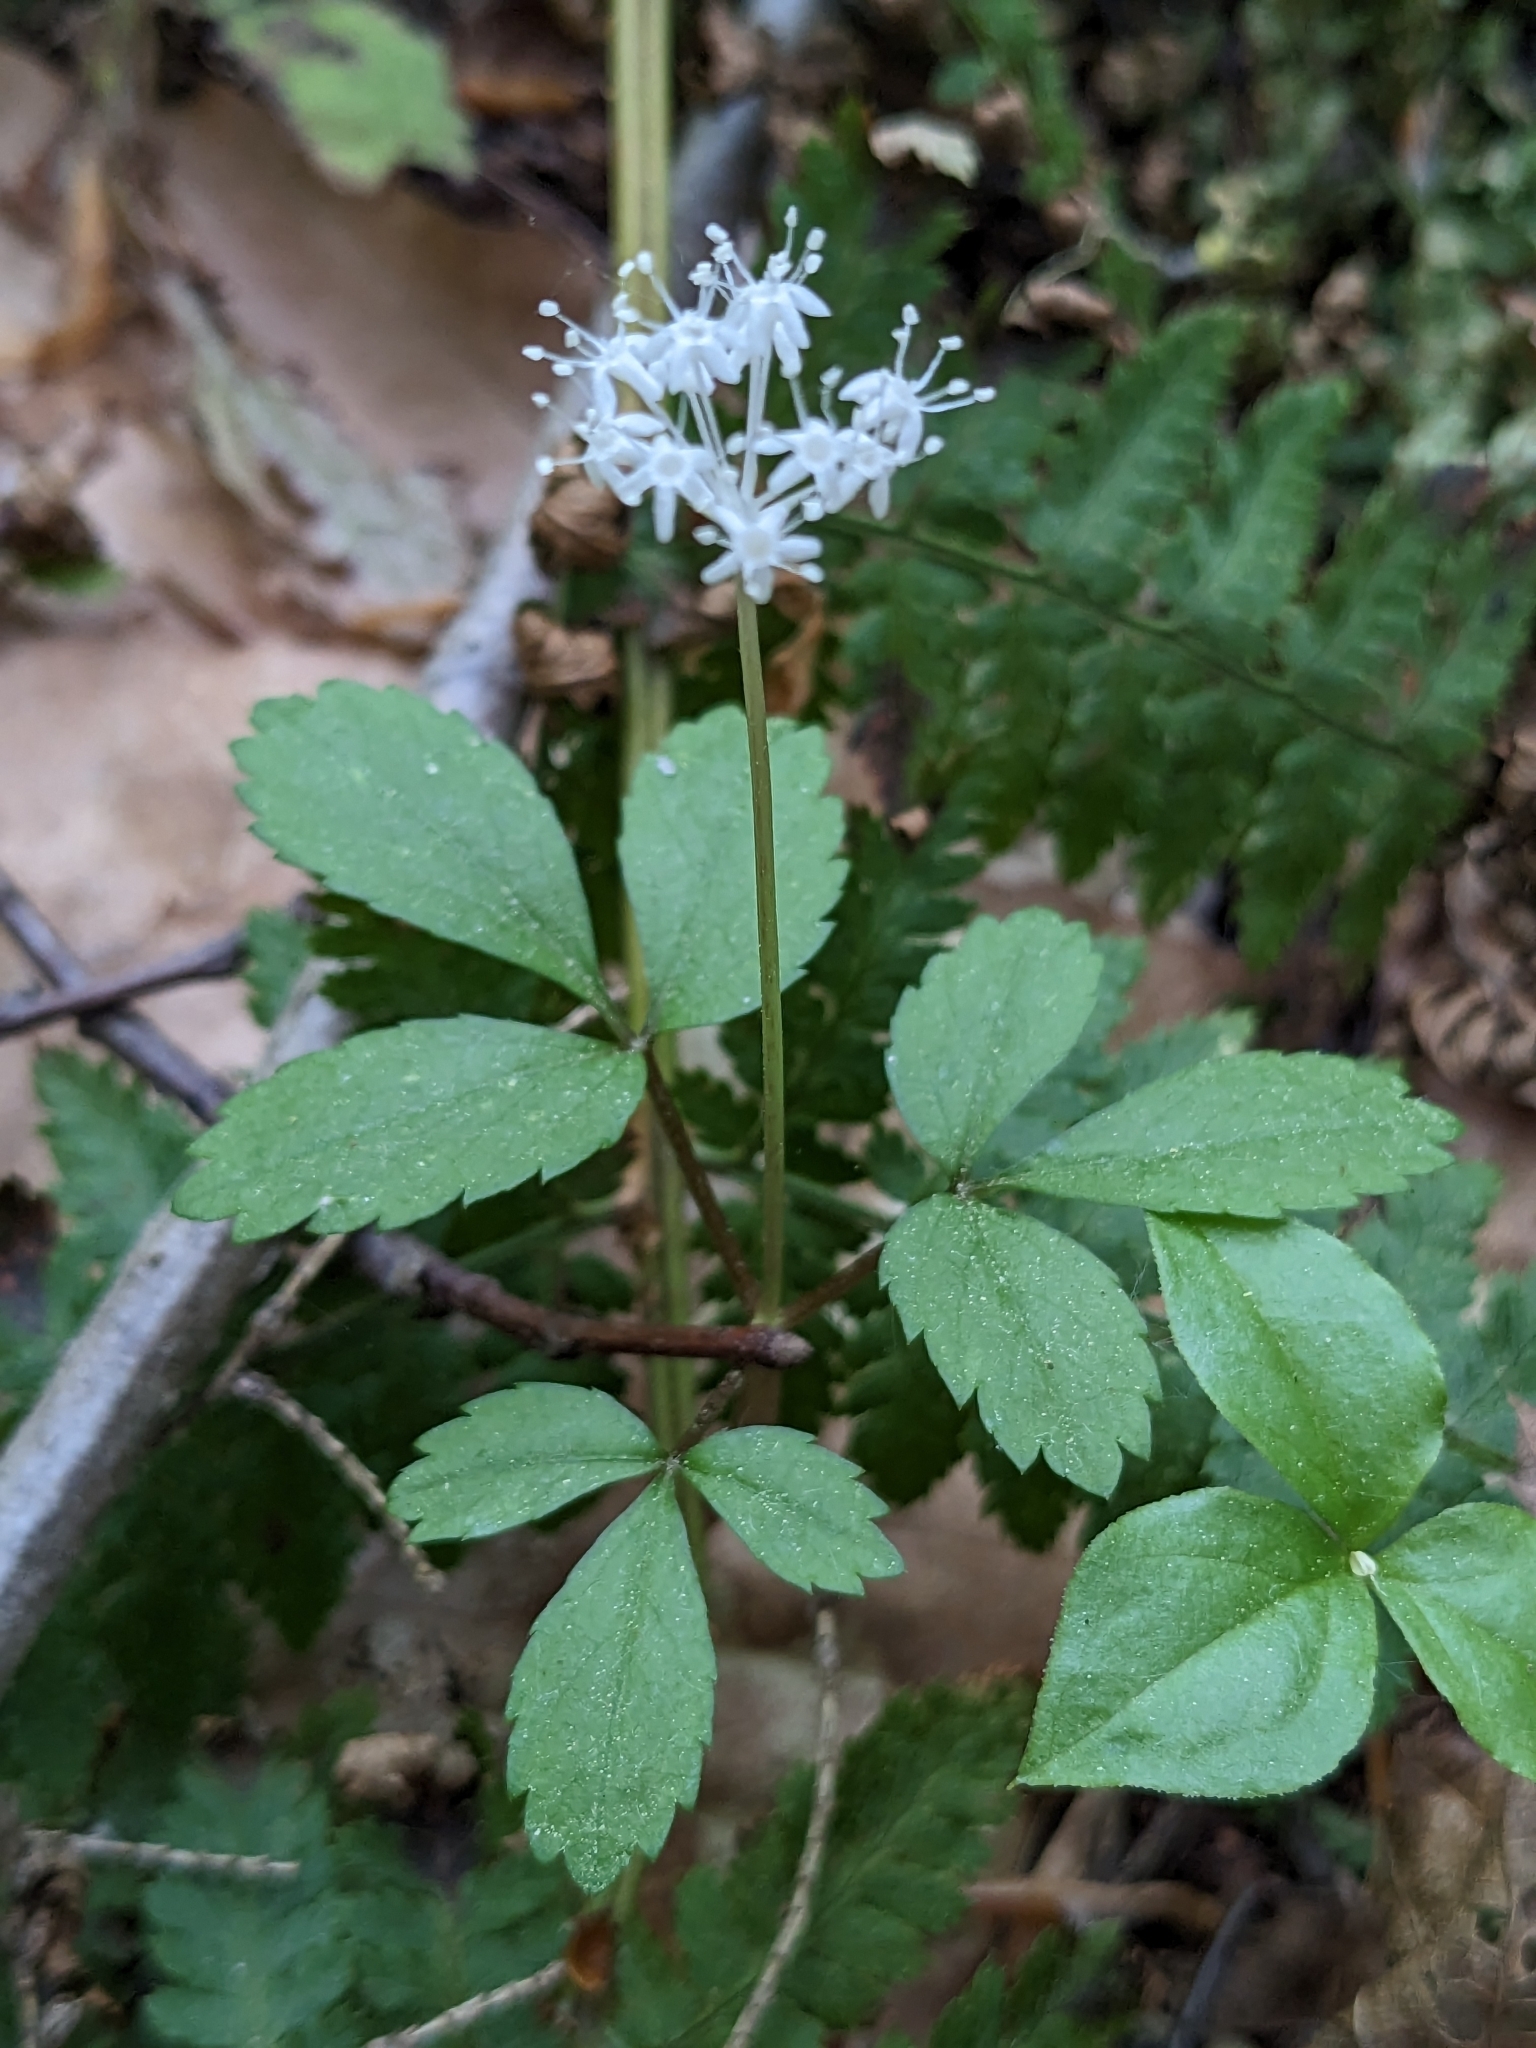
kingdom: Plantae
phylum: Tracheophyta
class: Magnoliopsida
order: Apiales
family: Araliaceae
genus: Panax
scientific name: Panax trifolius
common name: Dwarf ginseng
